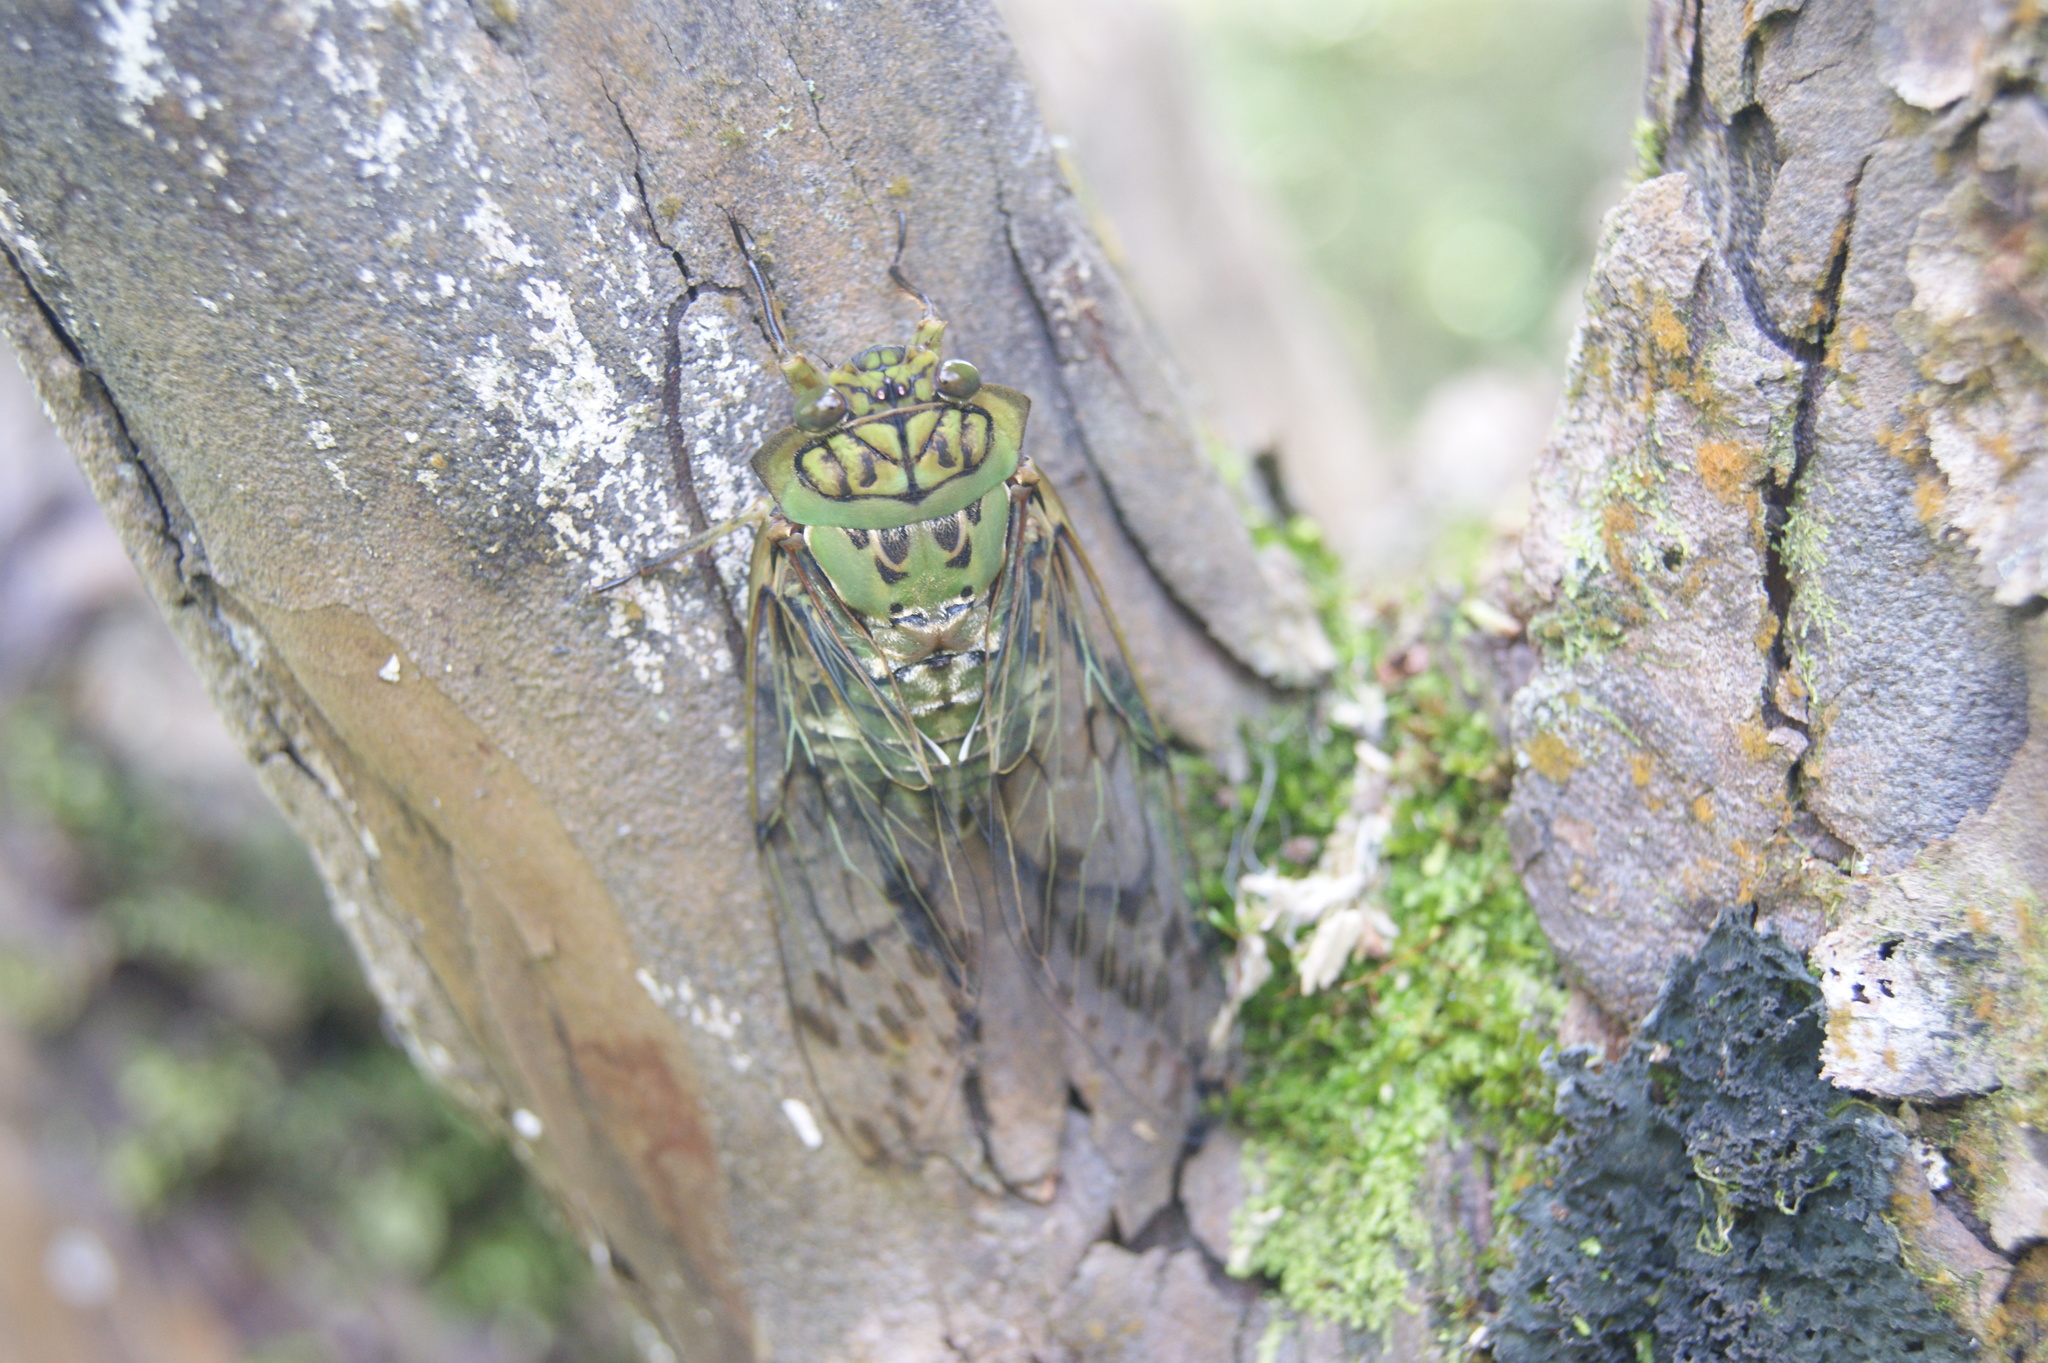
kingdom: Animalia
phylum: Arthropoda
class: Insecta
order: Hemiptera
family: Cicadidae
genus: Miranha
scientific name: Miranha imbellis
